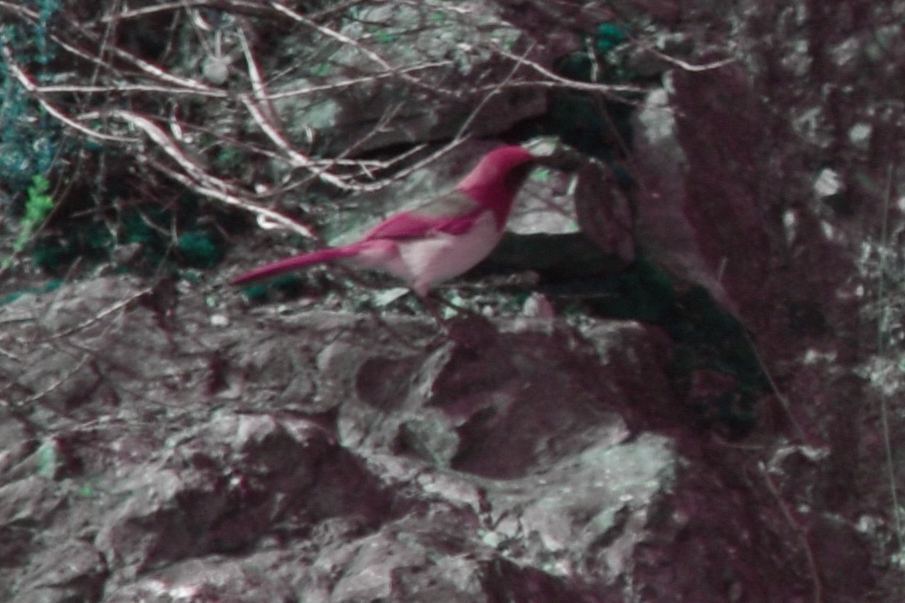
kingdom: Animalia
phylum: Chordata
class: Aves
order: Passeriformes
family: Corvidae
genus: Aphelocoma
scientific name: Aphelocoma californica
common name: California scrub-jay
